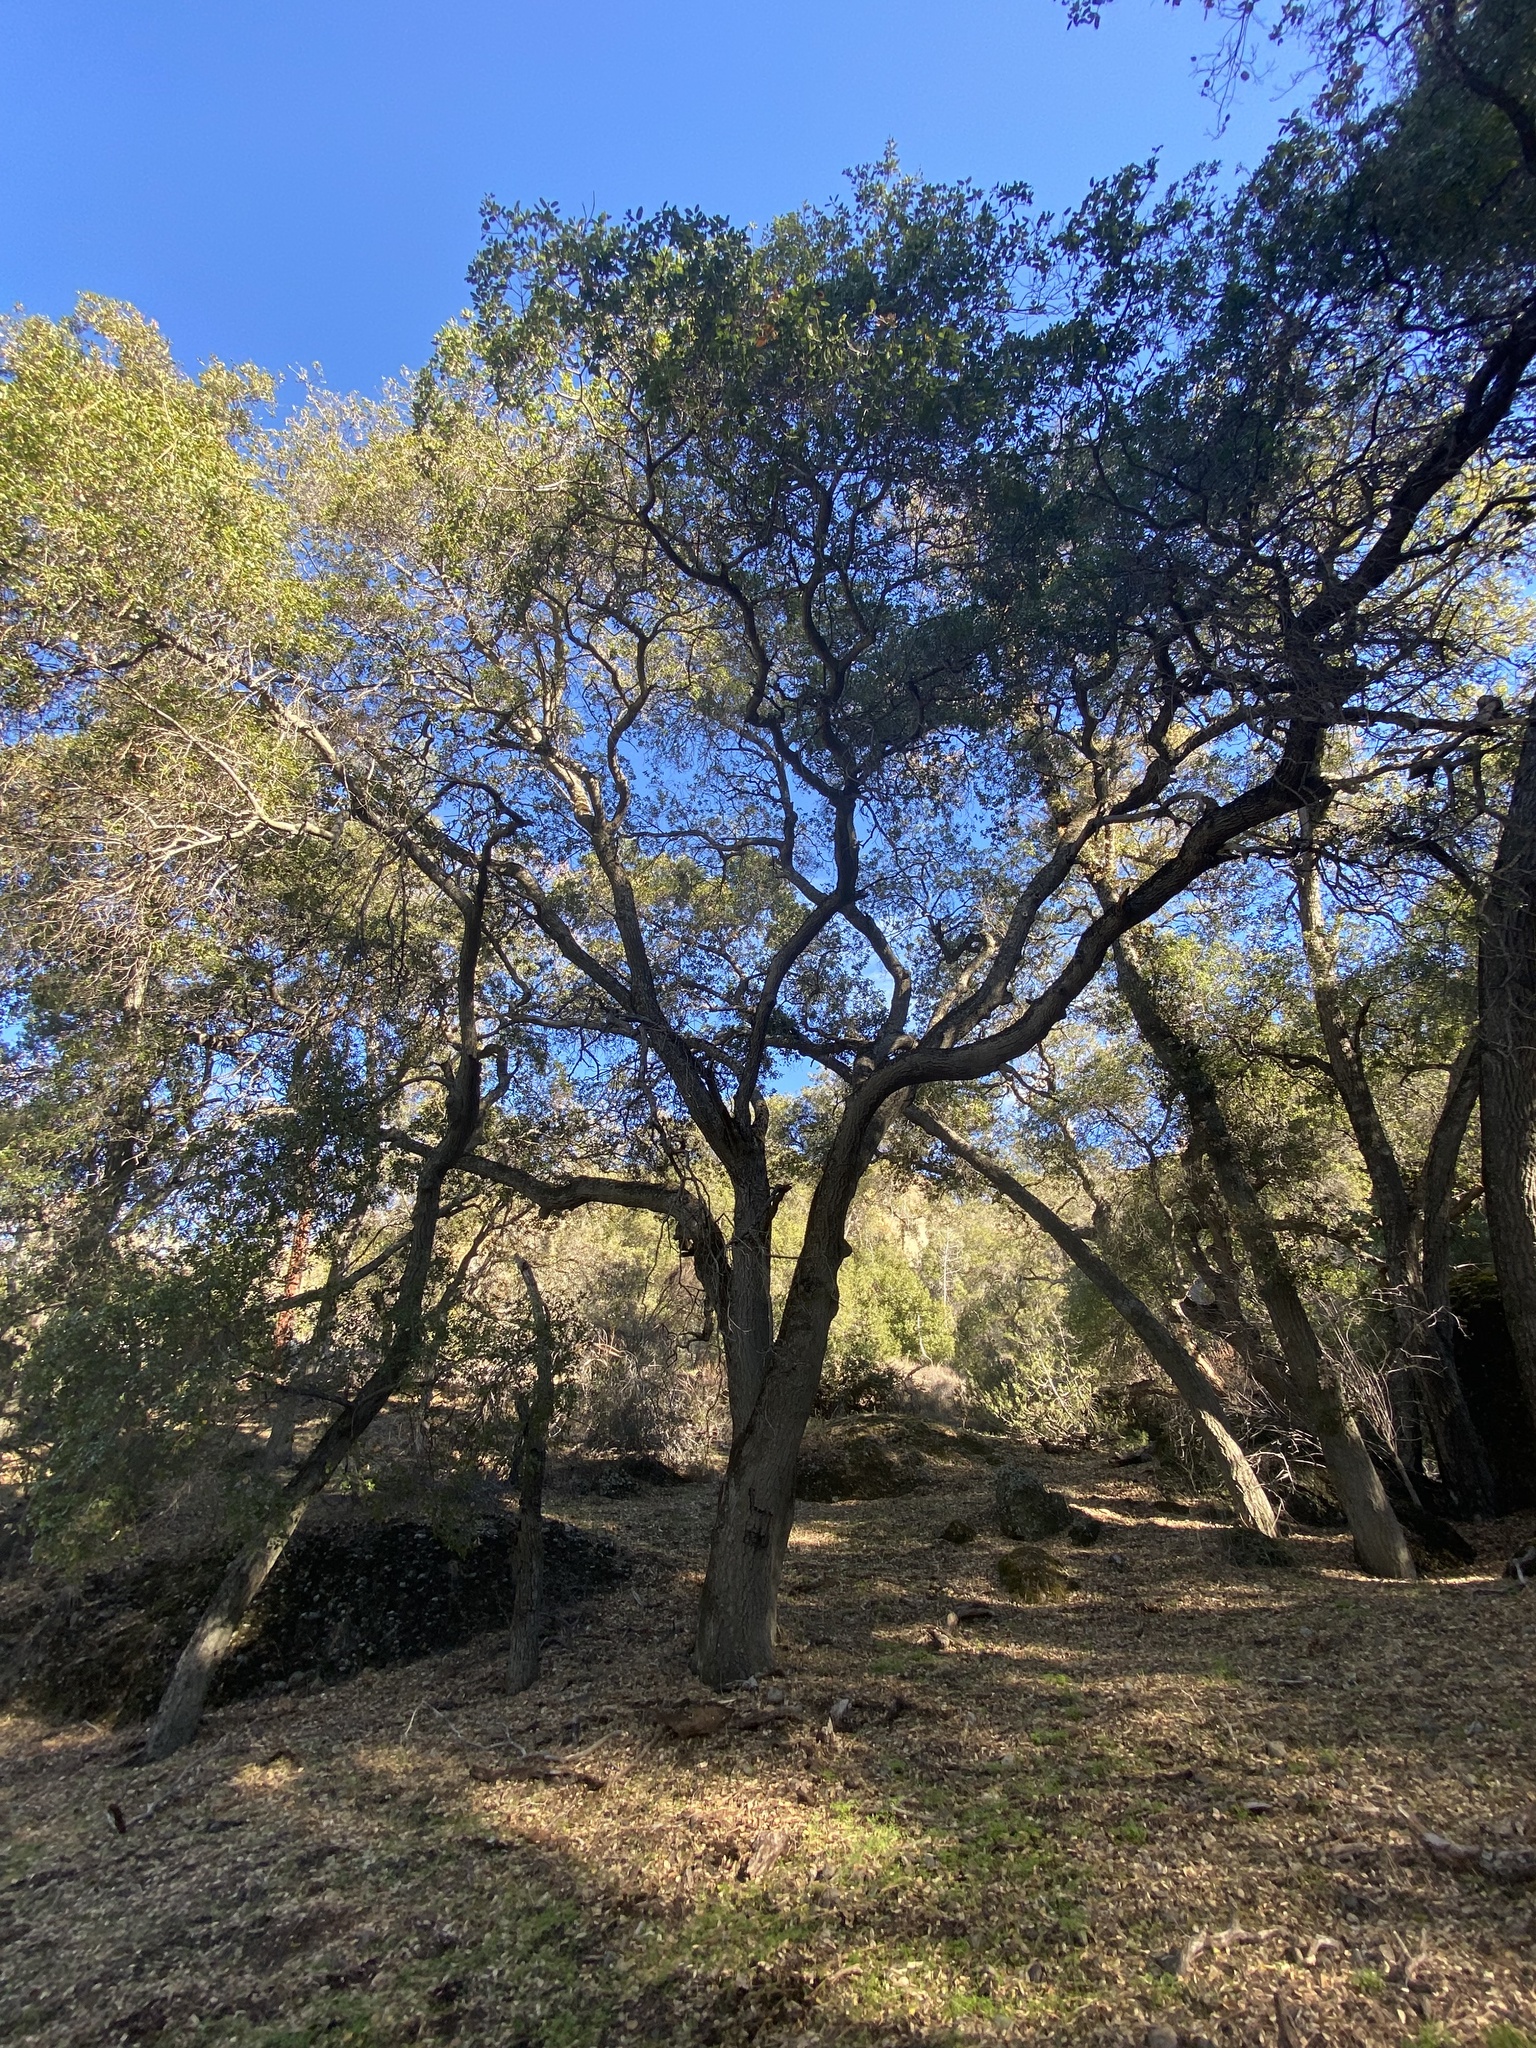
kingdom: Plantae
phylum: Tracheophyta
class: Magnoliopsida
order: Fagales
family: Fagaceae
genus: Quercus
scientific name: Quercus agrifolia
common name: California live oak
